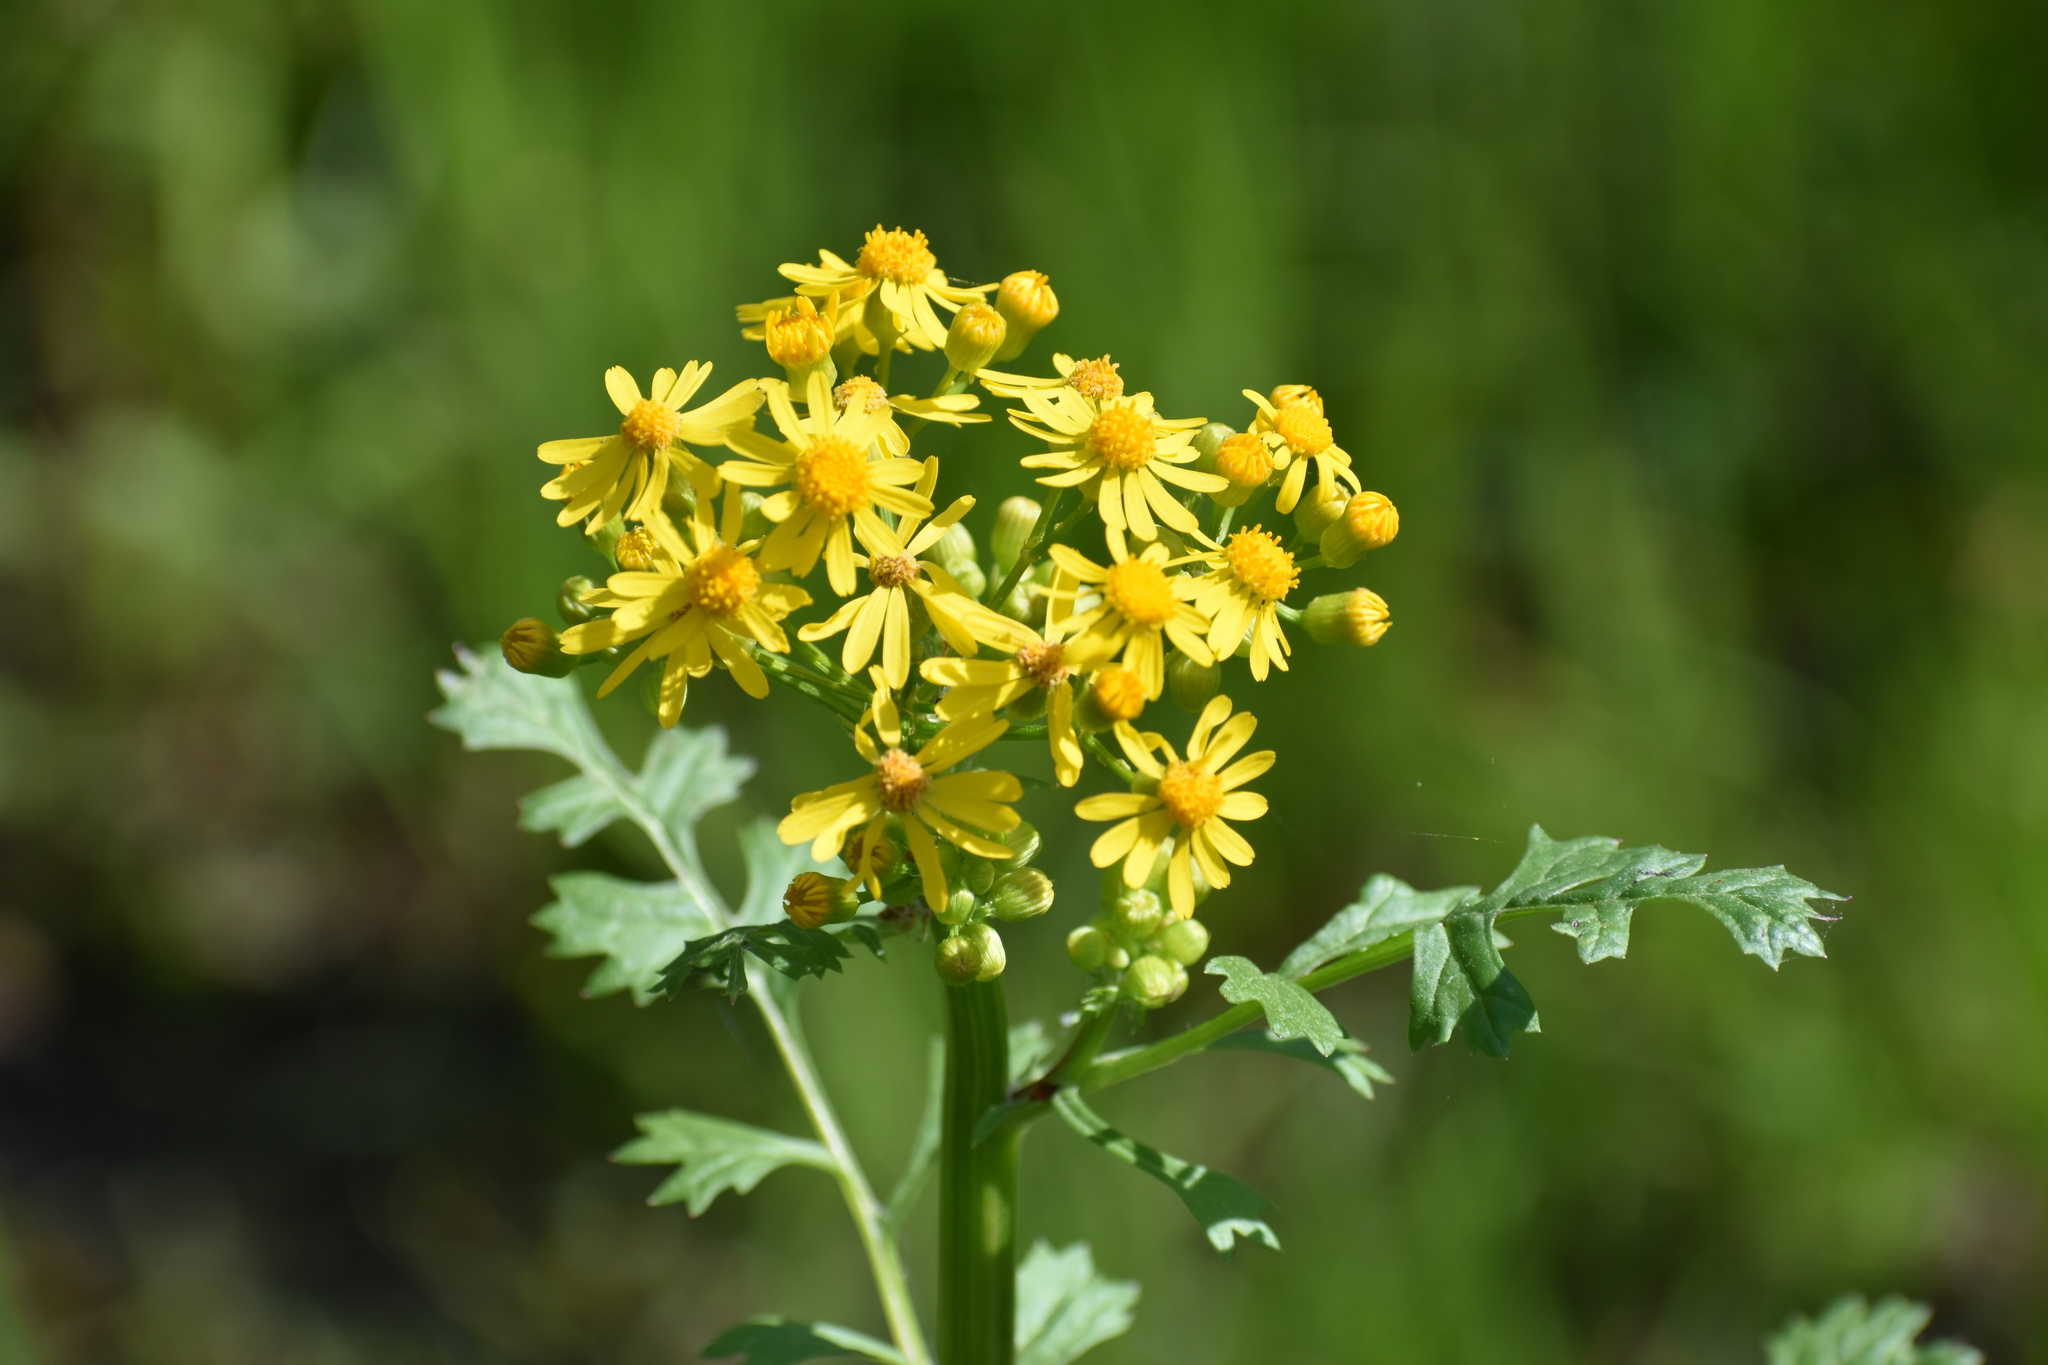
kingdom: Plantae
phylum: Tracheophyta
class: Magnoliopsida
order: Asterales
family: Asteraceae
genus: Packera
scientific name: Packera glabella
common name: Butterweed
